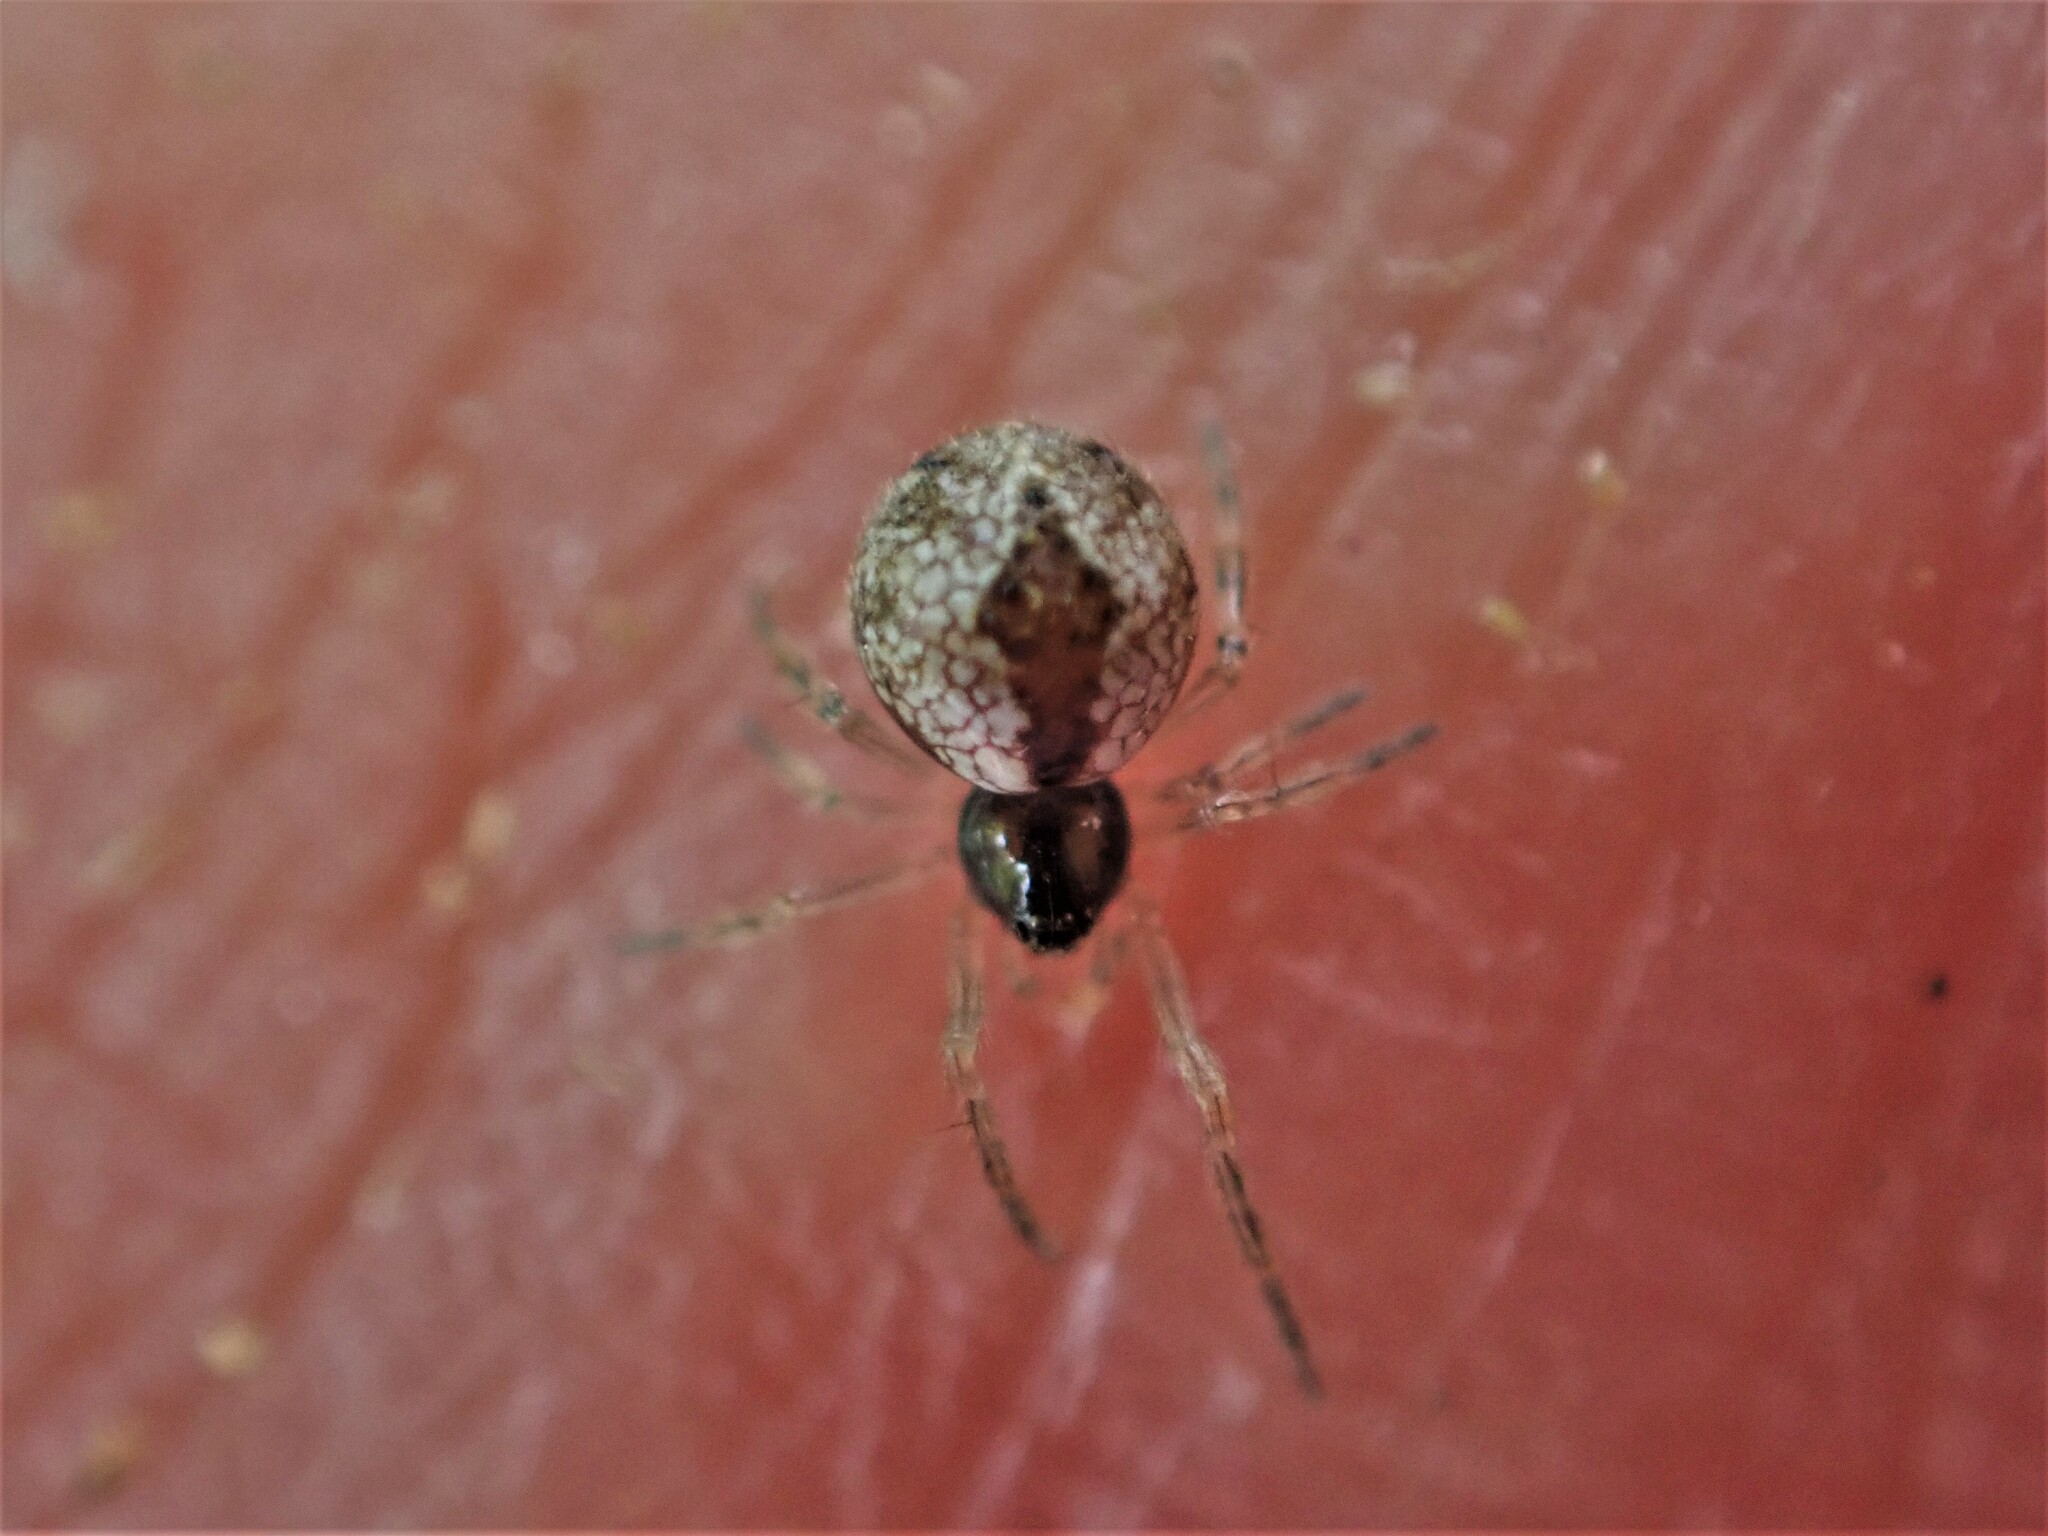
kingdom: Animalia
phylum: Arthropoda
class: Arachnida
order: Araneae
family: Theridiidae
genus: Cryptachaea
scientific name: Cryptachaea veruculata
